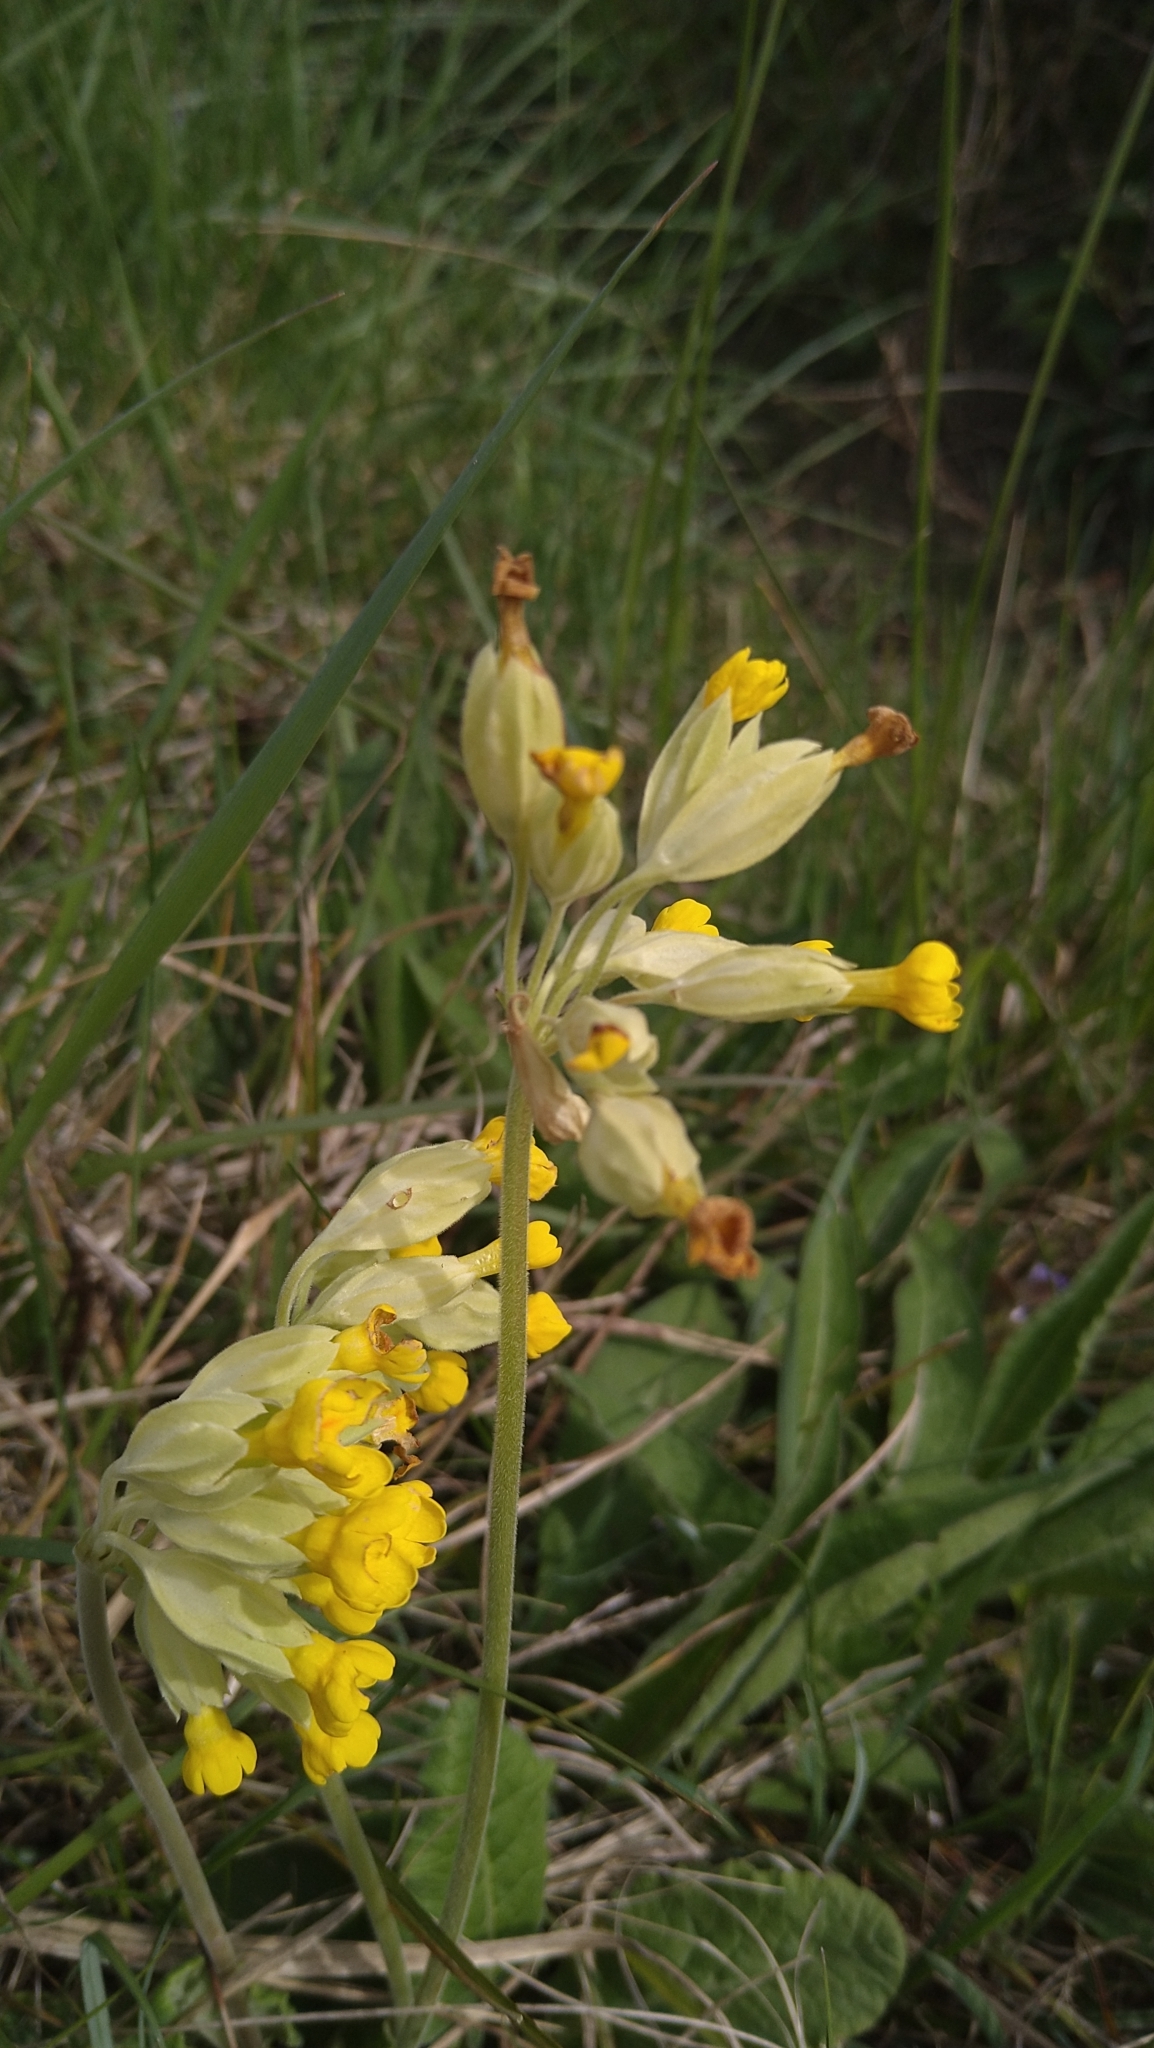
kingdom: Plantae
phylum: Tracheophyta
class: Magnoliopsida
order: Ericales
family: Primulaceae
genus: Primula
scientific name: Primula veris
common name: Cowslip
